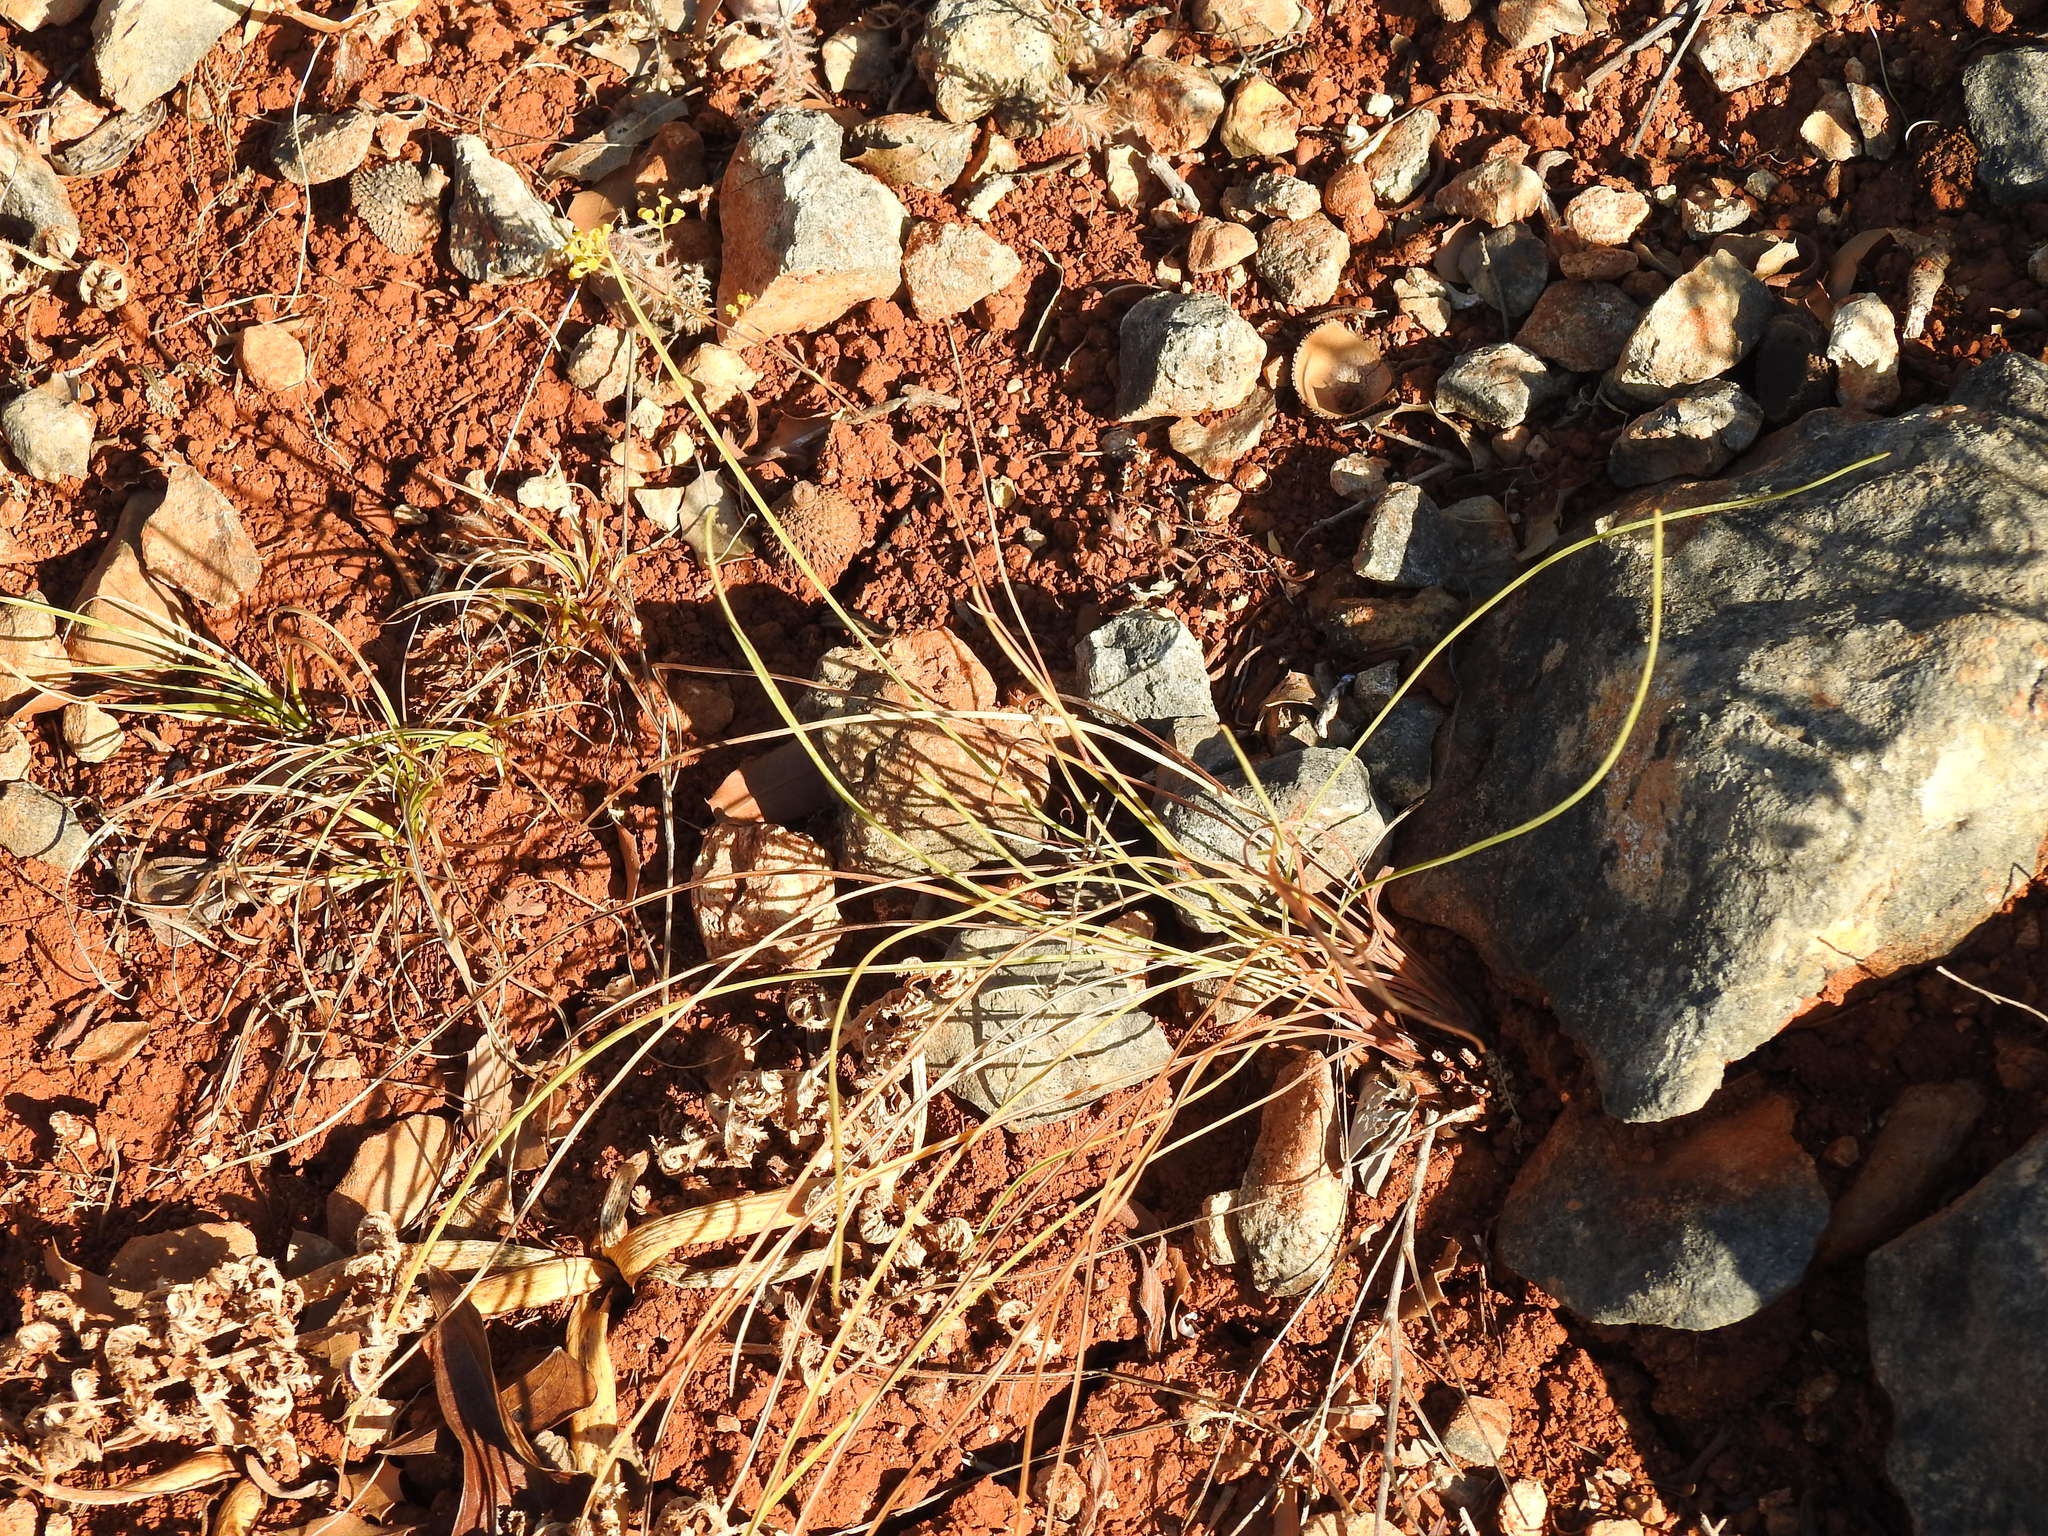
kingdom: Plantae
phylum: Tracheophyta
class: Magnoliopsida
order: Apiales
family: Apiaceae
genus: Bupleurum
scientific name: Bupleurum rigidum
